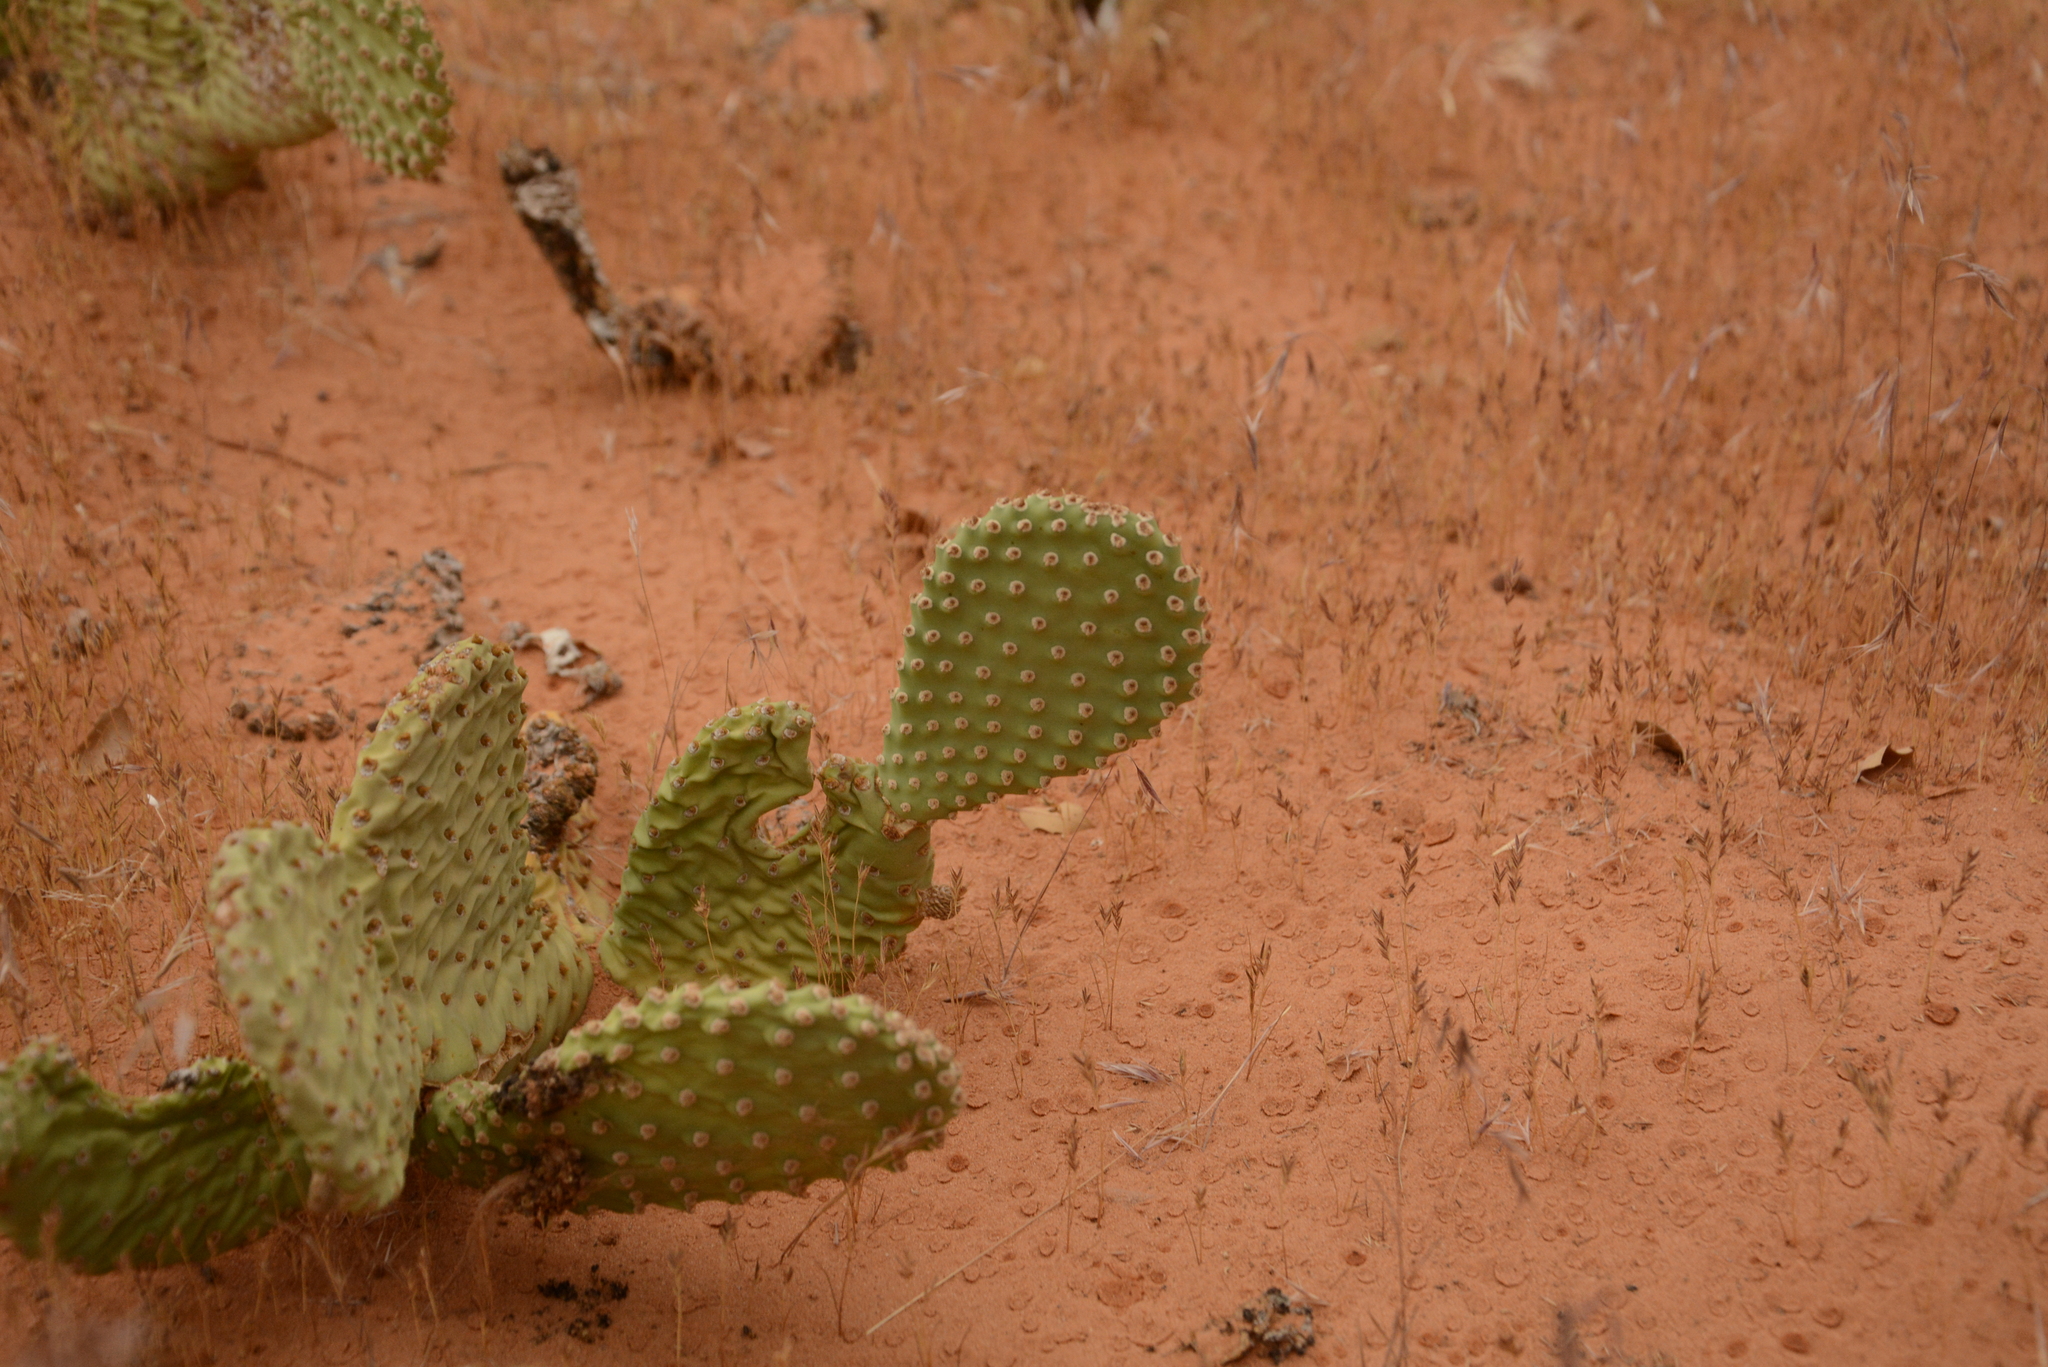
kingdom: Plantae
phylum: Tracheophyta
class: Magnoliopsida
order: Caryophyllales
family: Cactaceae
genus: Opuntia
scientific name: Opuntia aurea
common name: Golden prickly-pear
